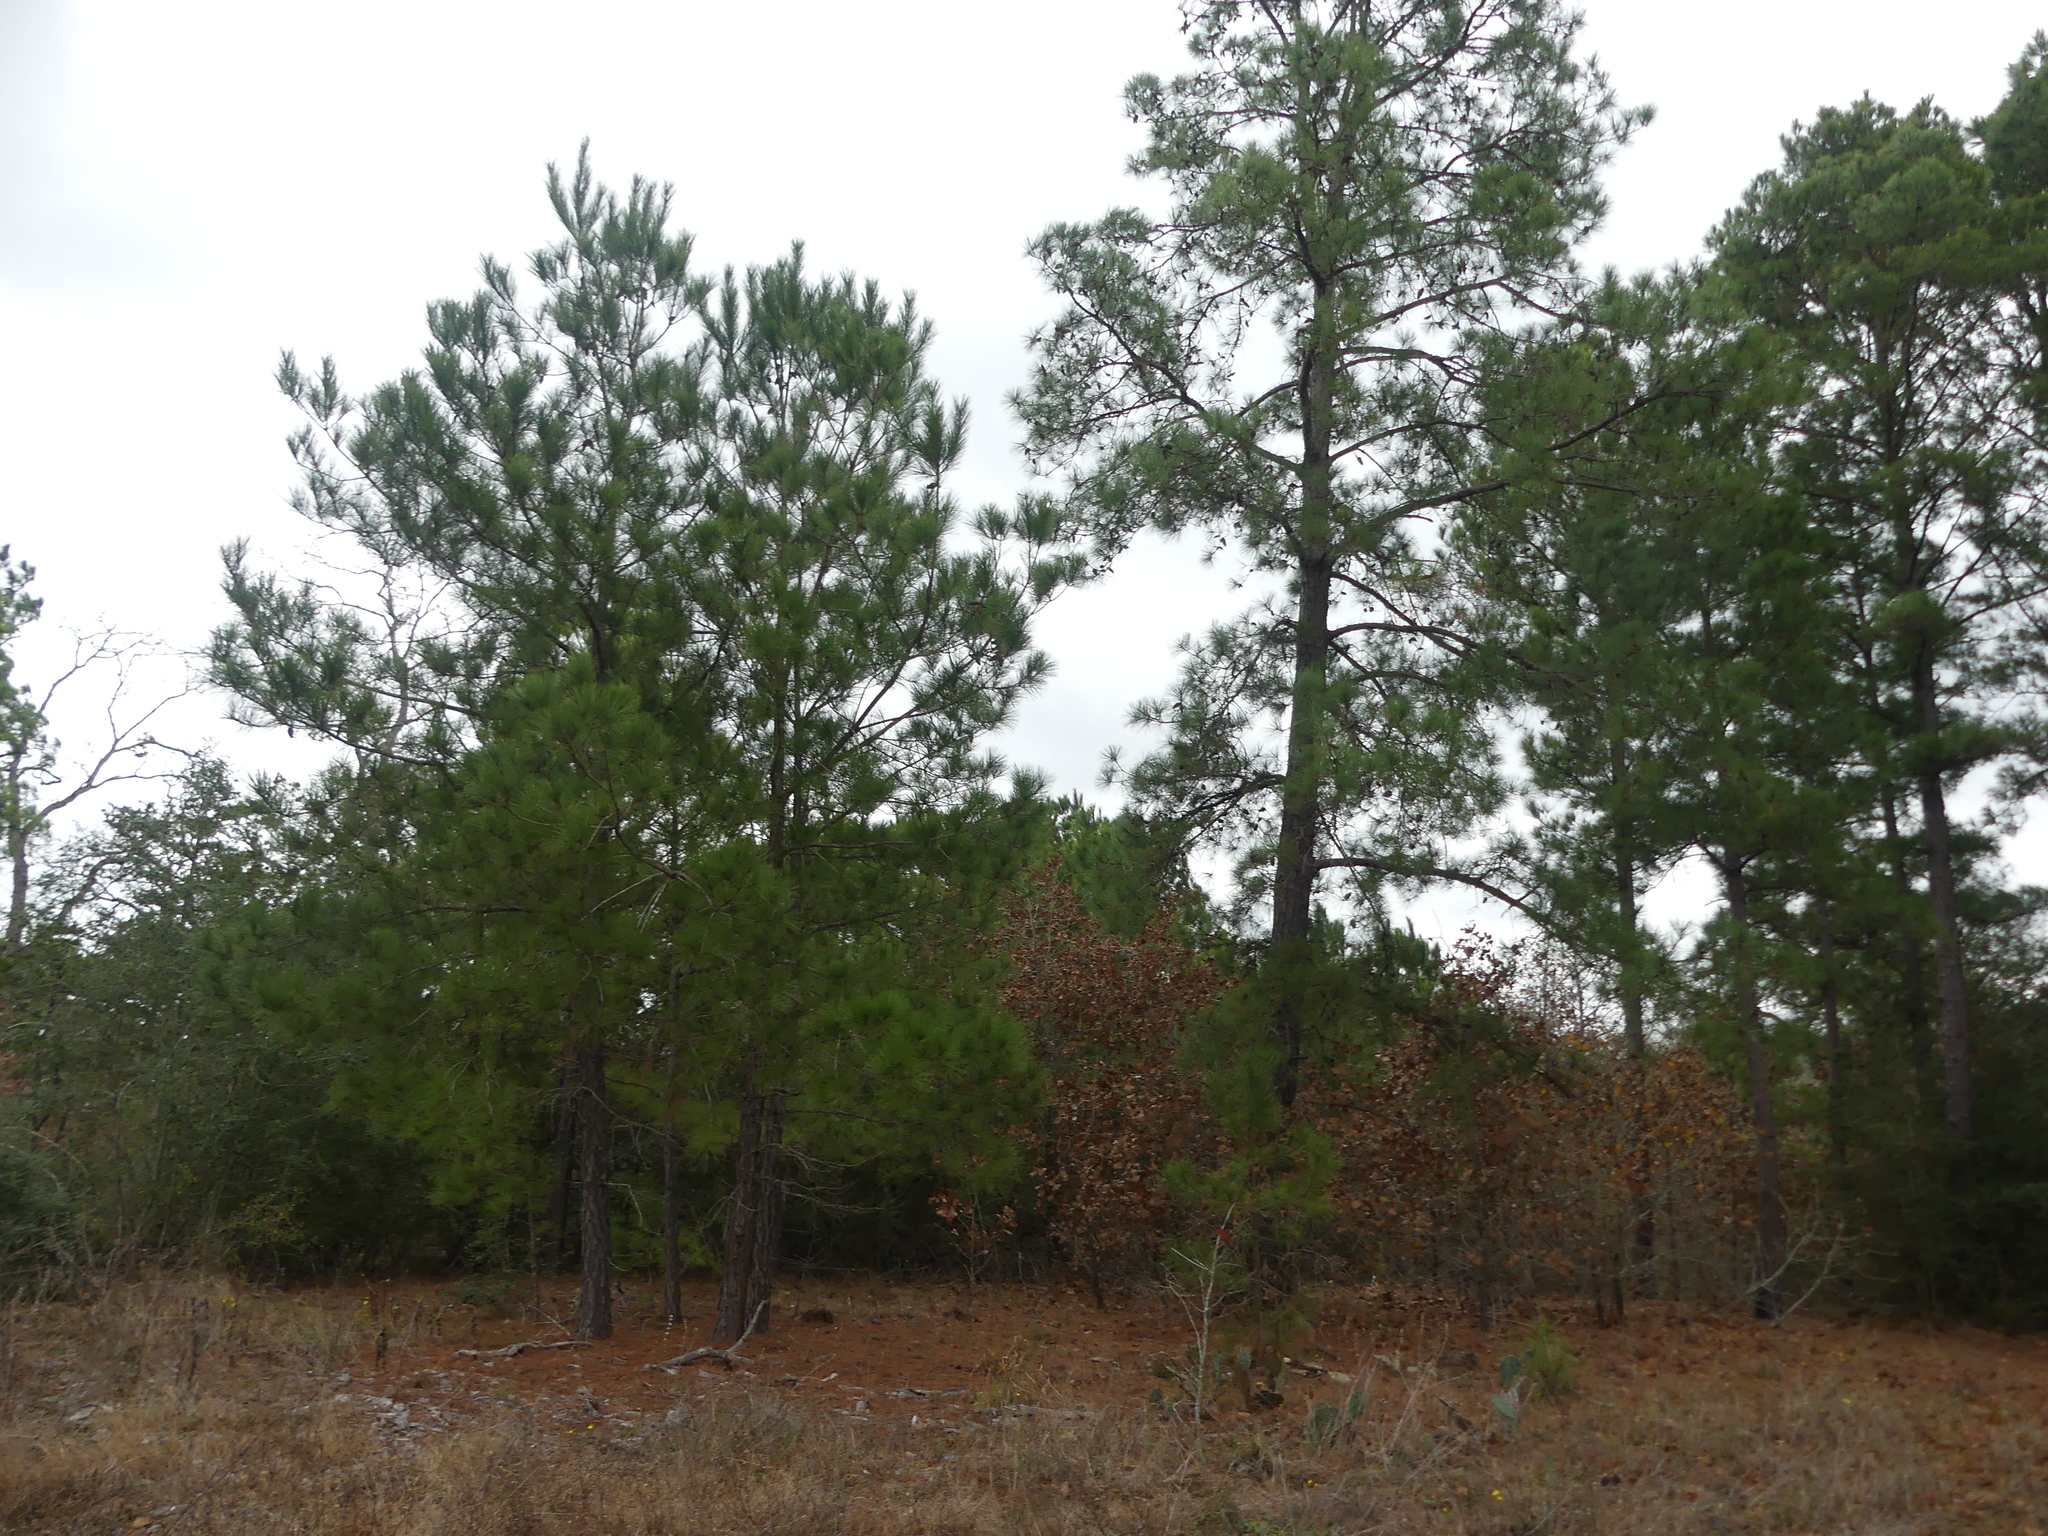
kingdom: Plantae
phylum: Tracheophyta
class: Pinopsida
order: Pinales
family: Pinaceae
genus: Pinus
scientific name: Pinus taeda
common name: Loblolly pine
